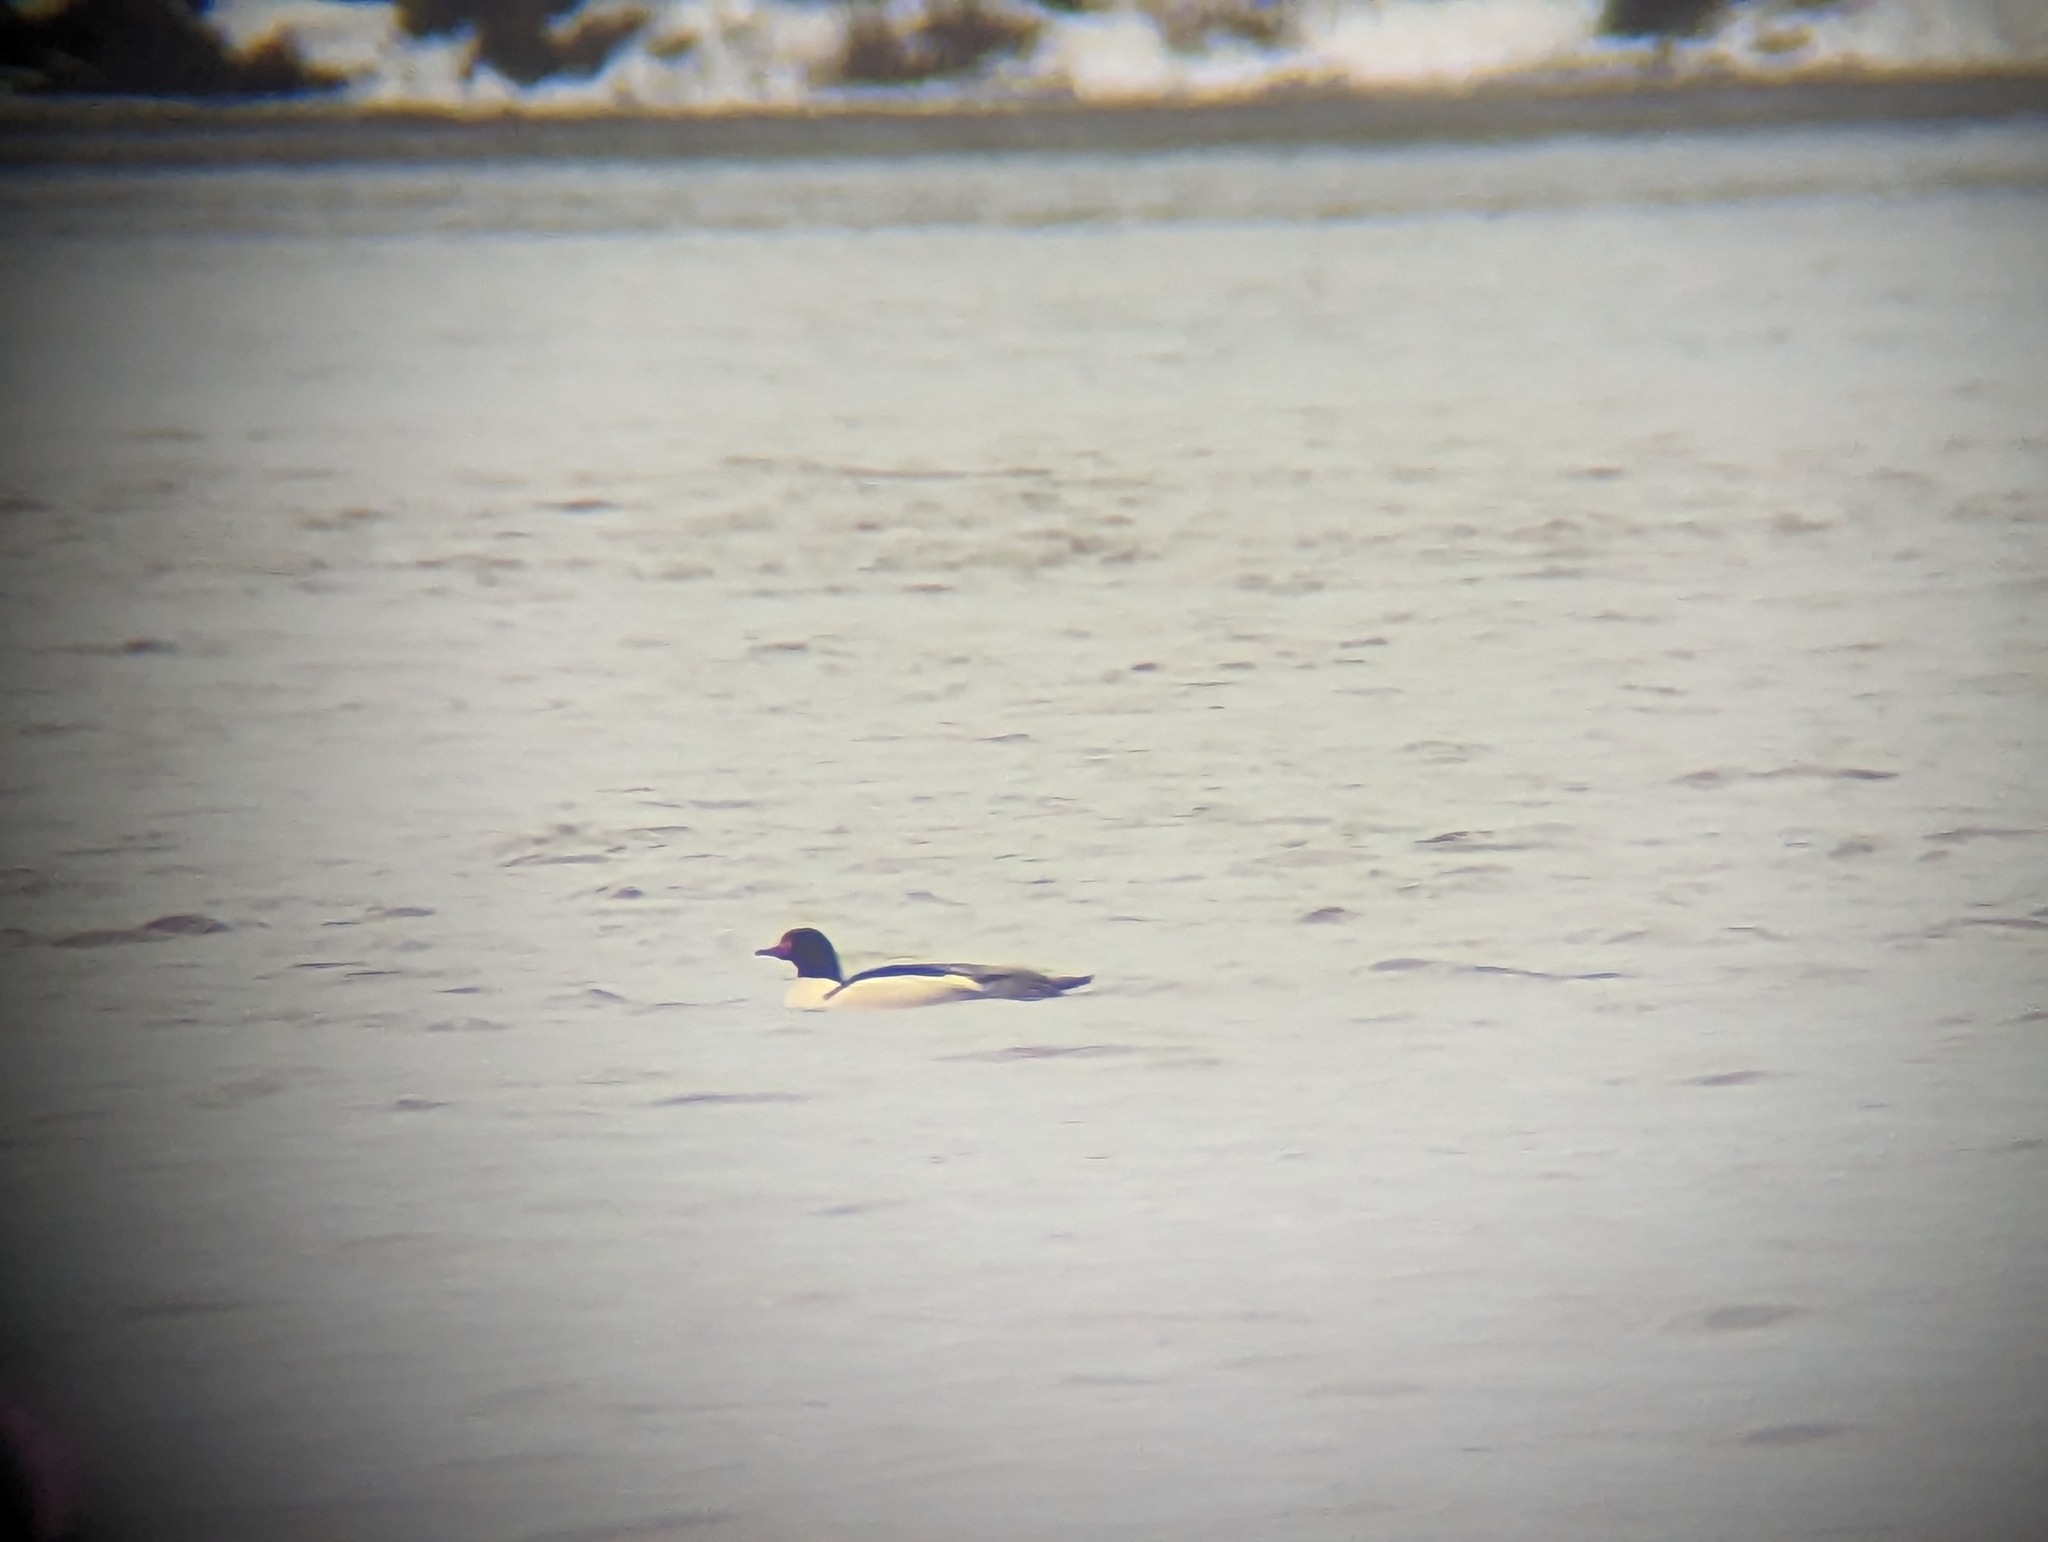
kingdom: Animalia
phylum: Chordata
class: Aves
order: Anseriformes
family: Anatidae
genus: Mergus
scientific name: Mergus merganser
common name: Common merganser
